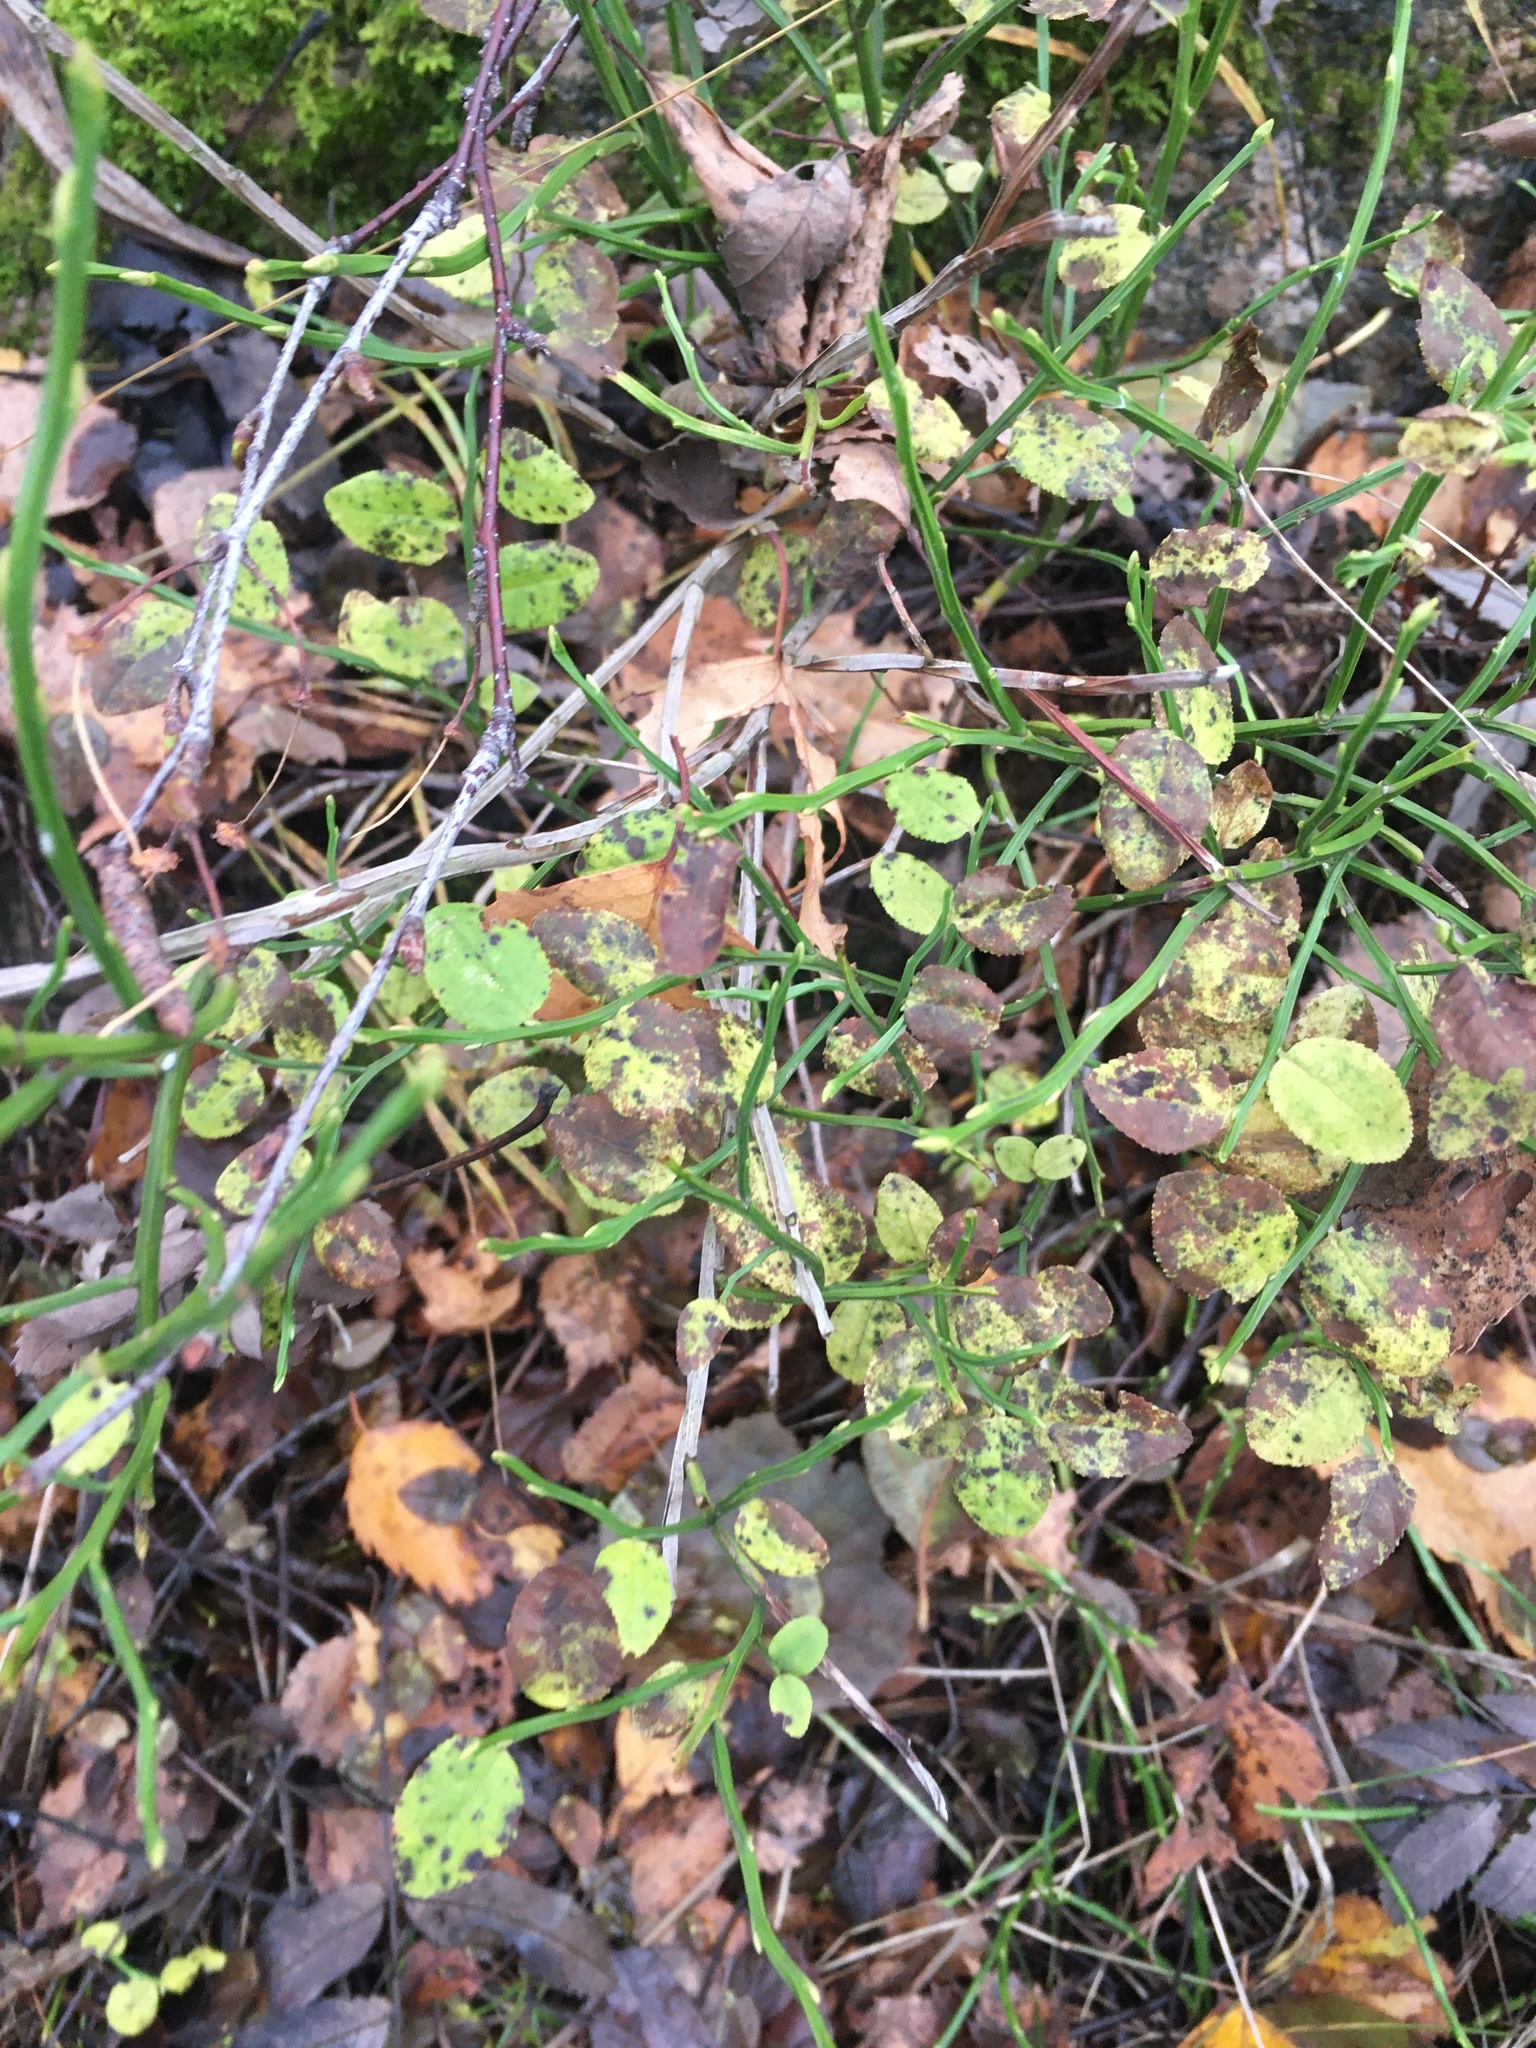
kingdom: Plantae
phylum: Tracheophyta
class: Magnoliopsida
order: Ericales
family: Ericaceae
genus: Vaccinium
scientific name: Vaccinium myrtillus
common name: Bilberry
